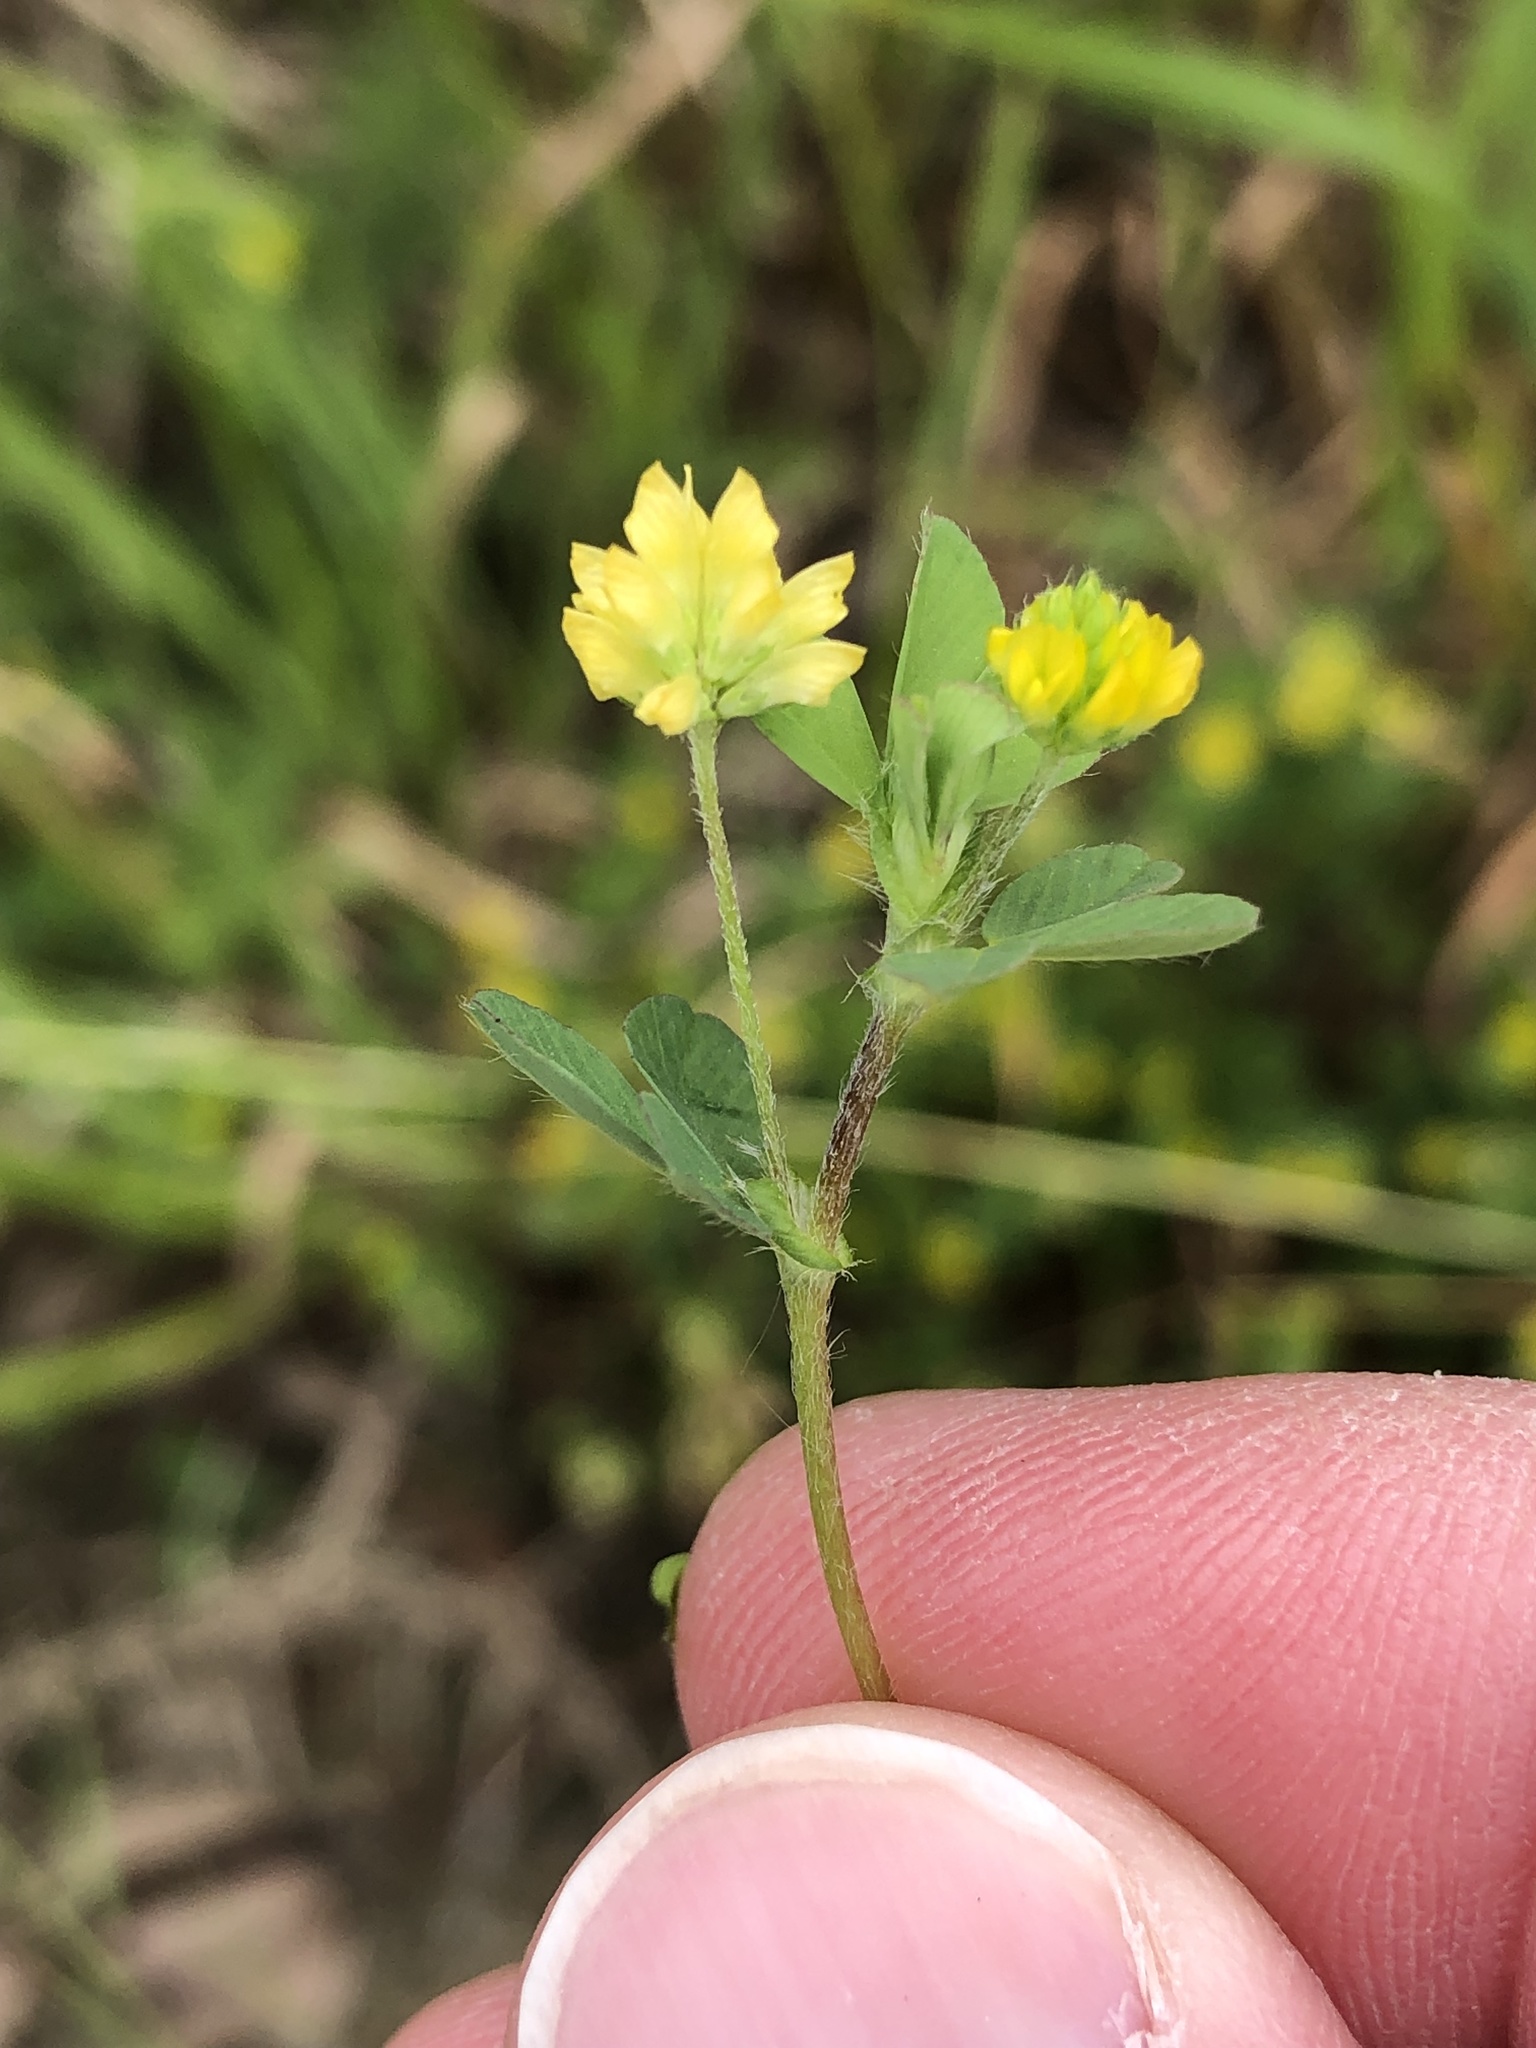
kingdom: Plantae
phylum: Tracheophyta
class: Magnoliopsida
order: Fabales
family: Fabaceae
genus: Trifolium
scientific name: Trifolium dubium
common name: Suckling clover
